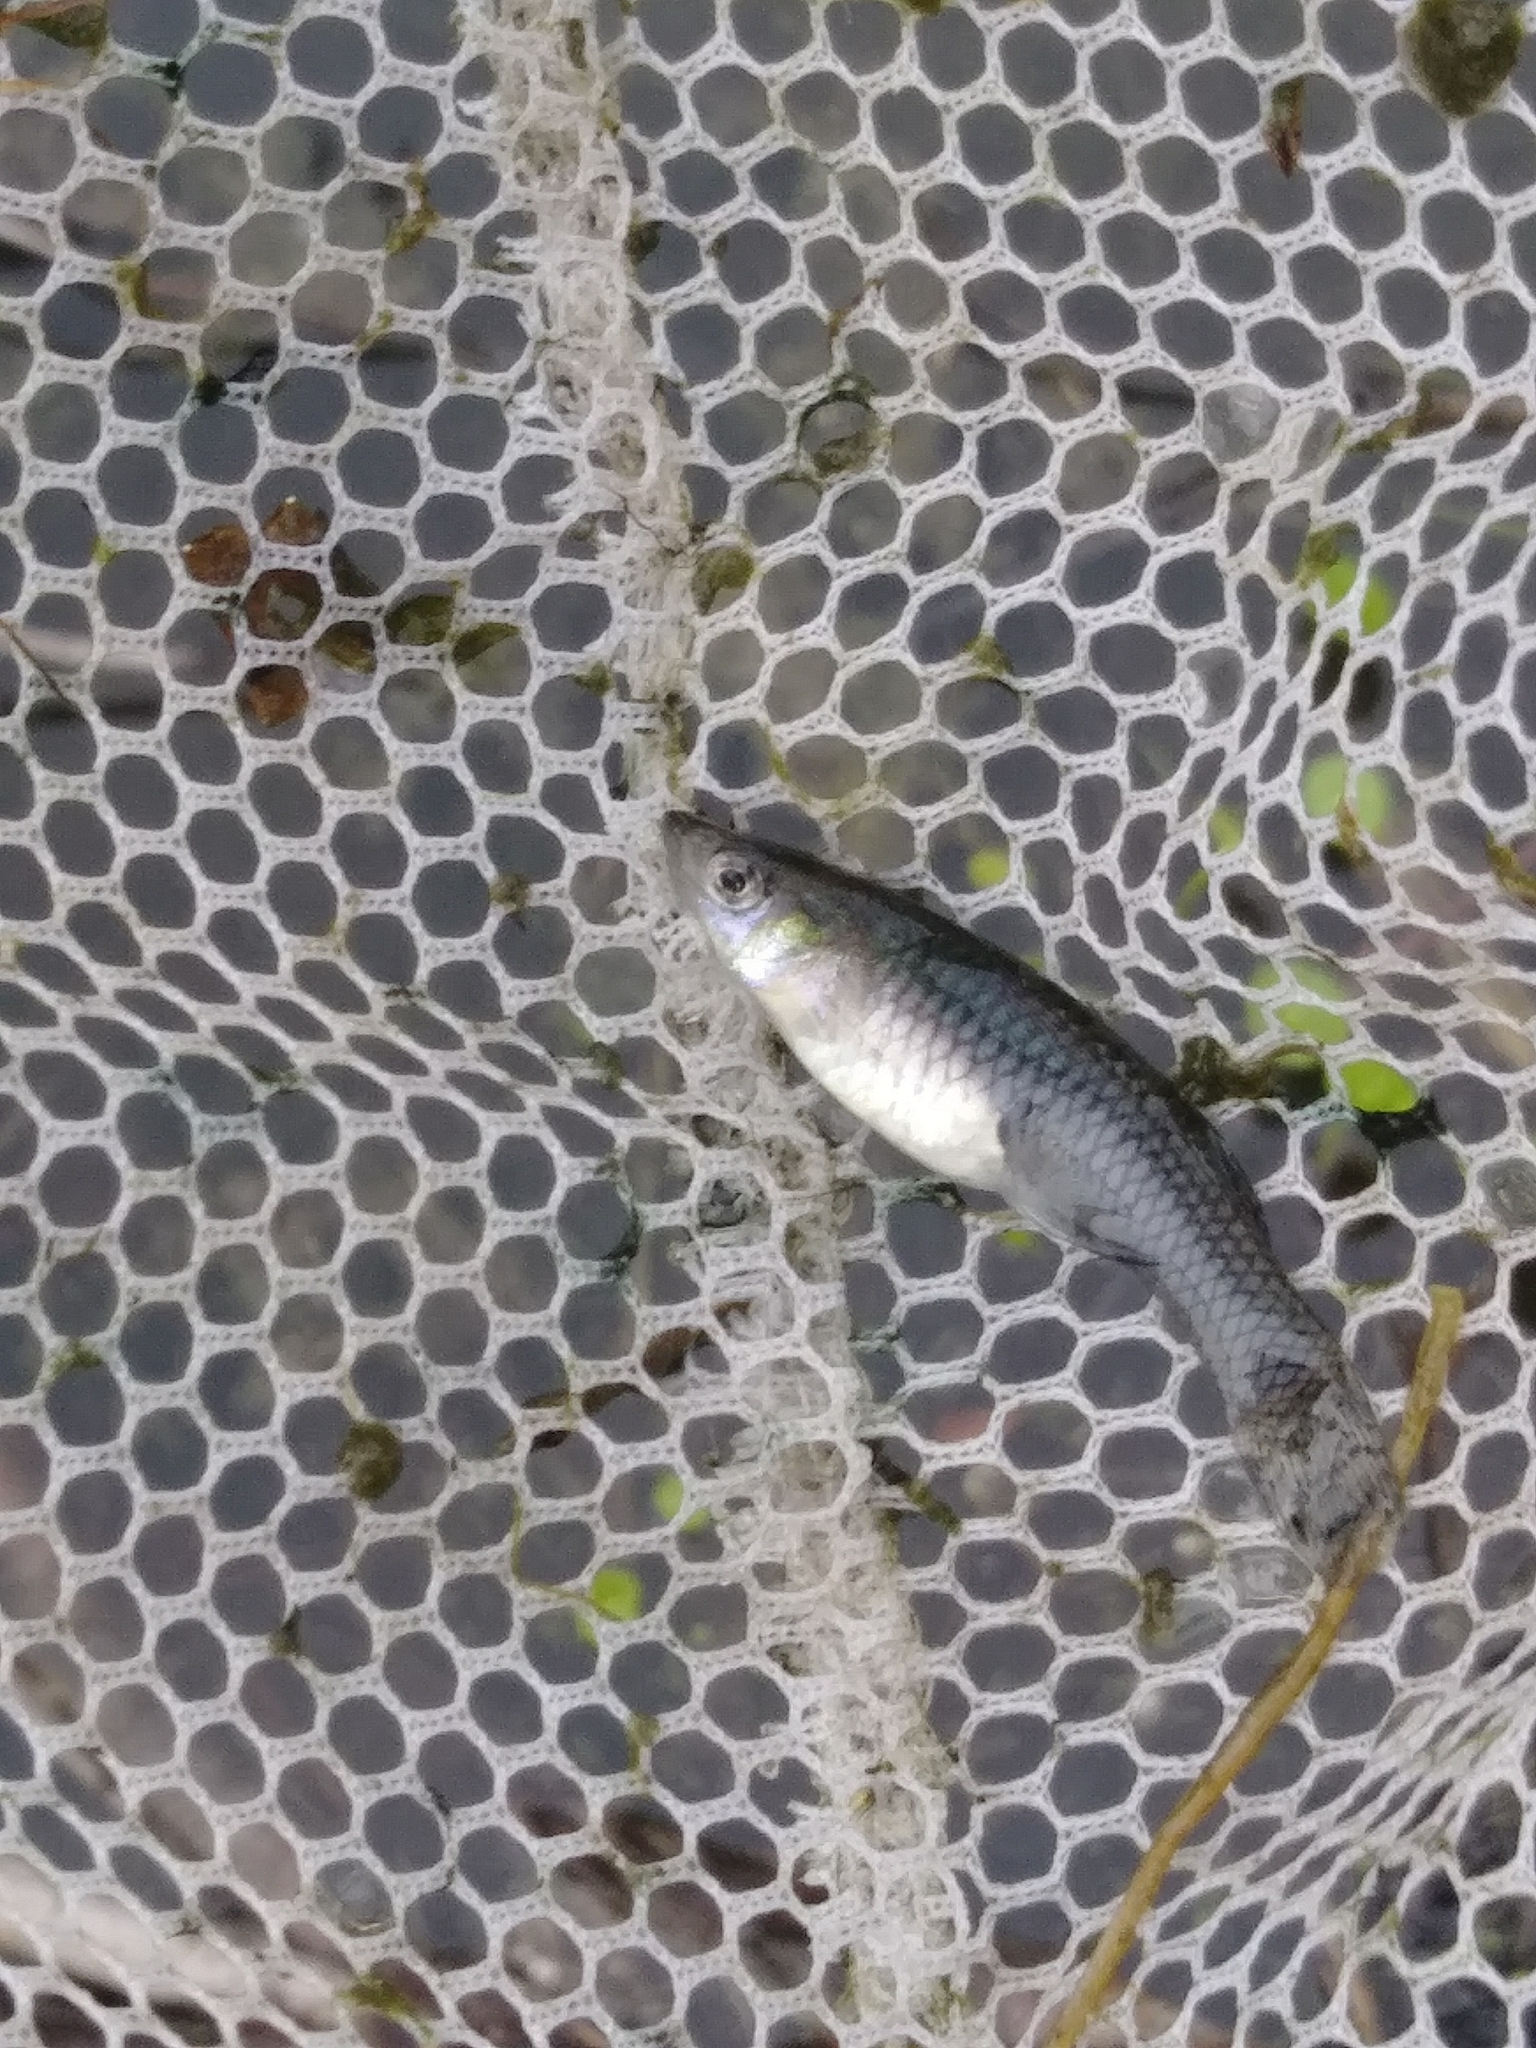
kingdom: Animalia
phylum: Chordata
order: Cyprinodontiformes
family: Poeciliidae
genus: Gambusia
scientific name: Gambusia holbrooki
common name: Eastern mosquitofish
